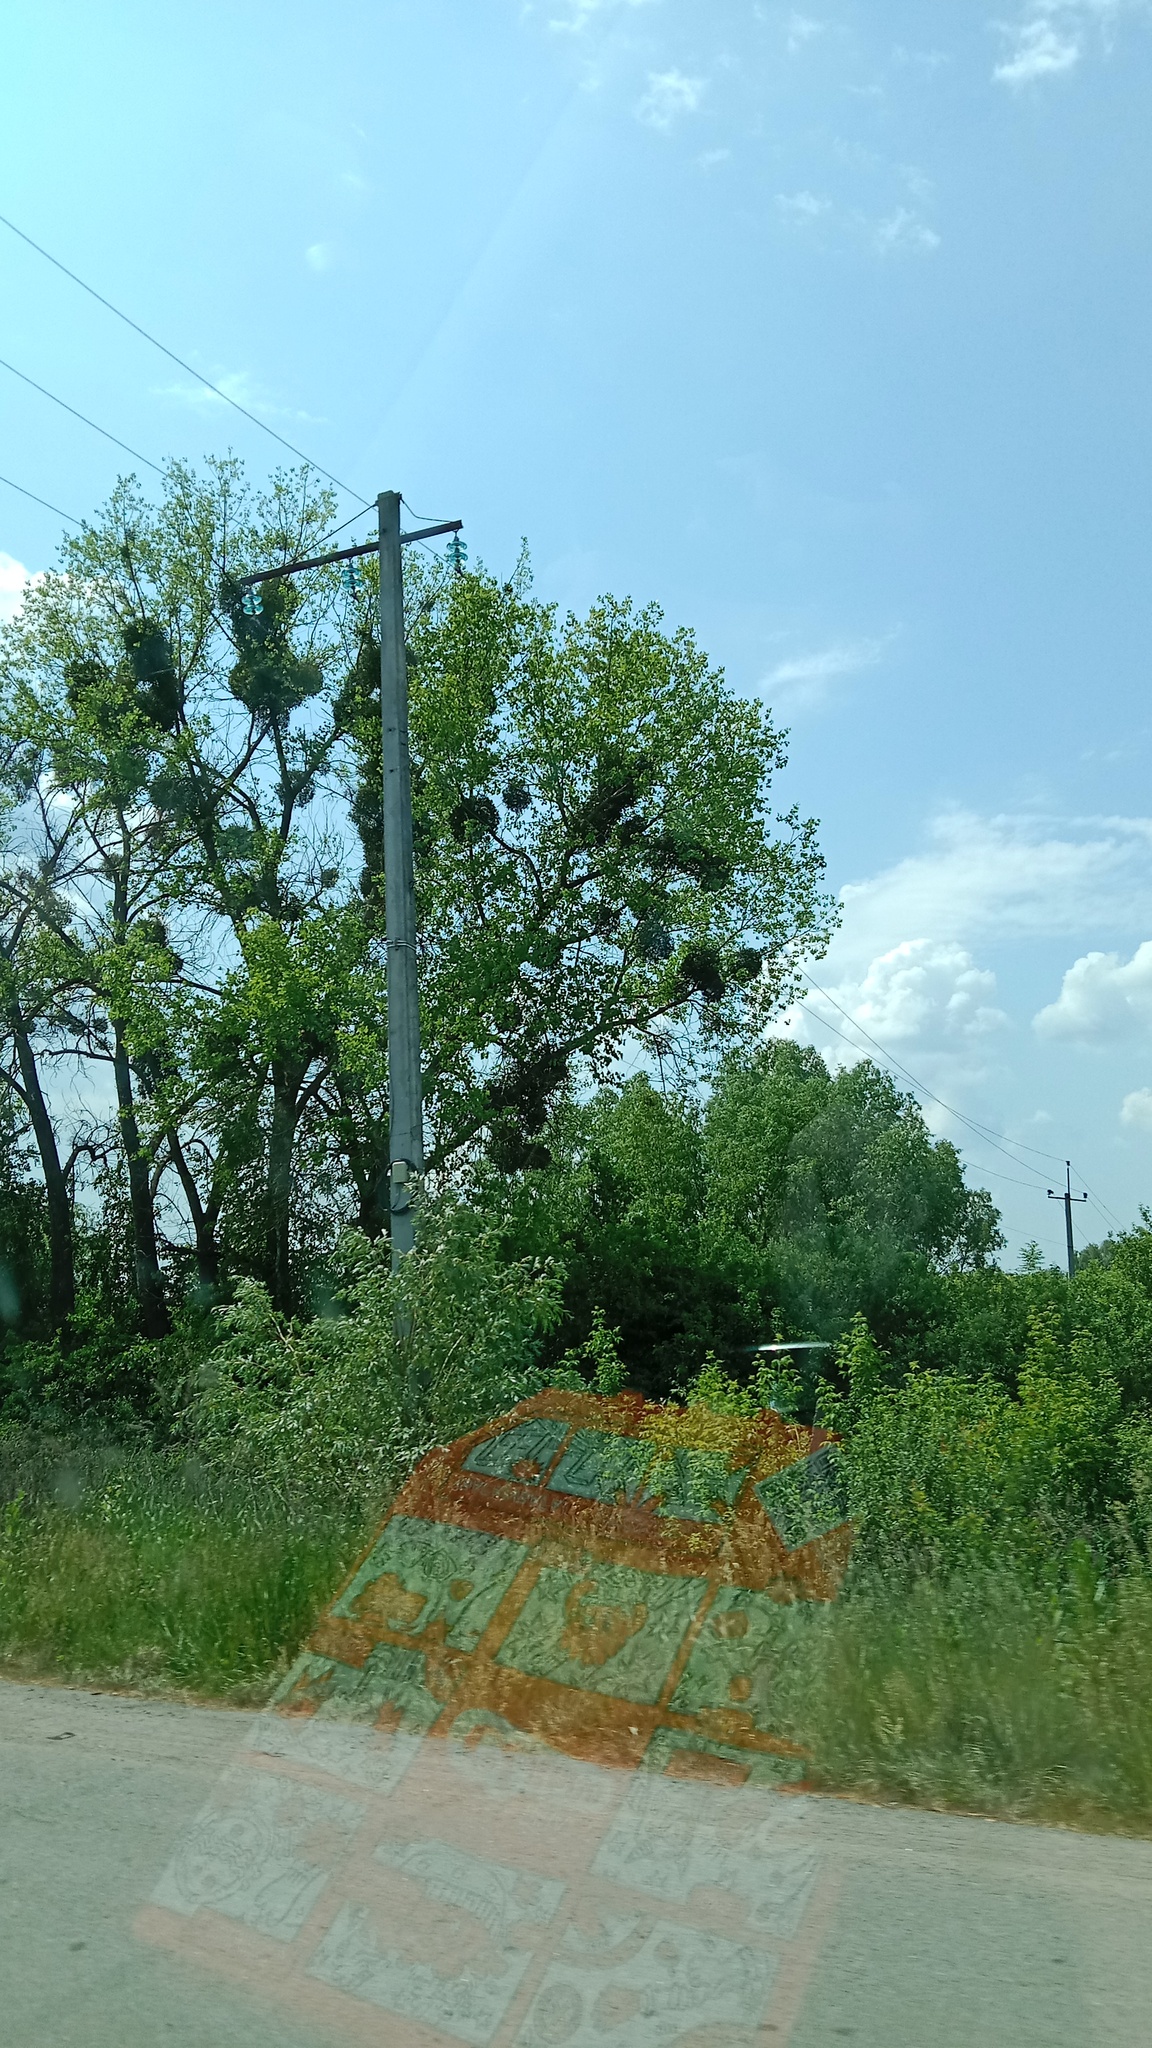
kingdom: Plantae
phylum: Tracheophyta
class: Magnoliopsida
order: Santalales
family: Viscaceae
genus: Viscum
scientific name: Viscum album
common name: Mistletoe
